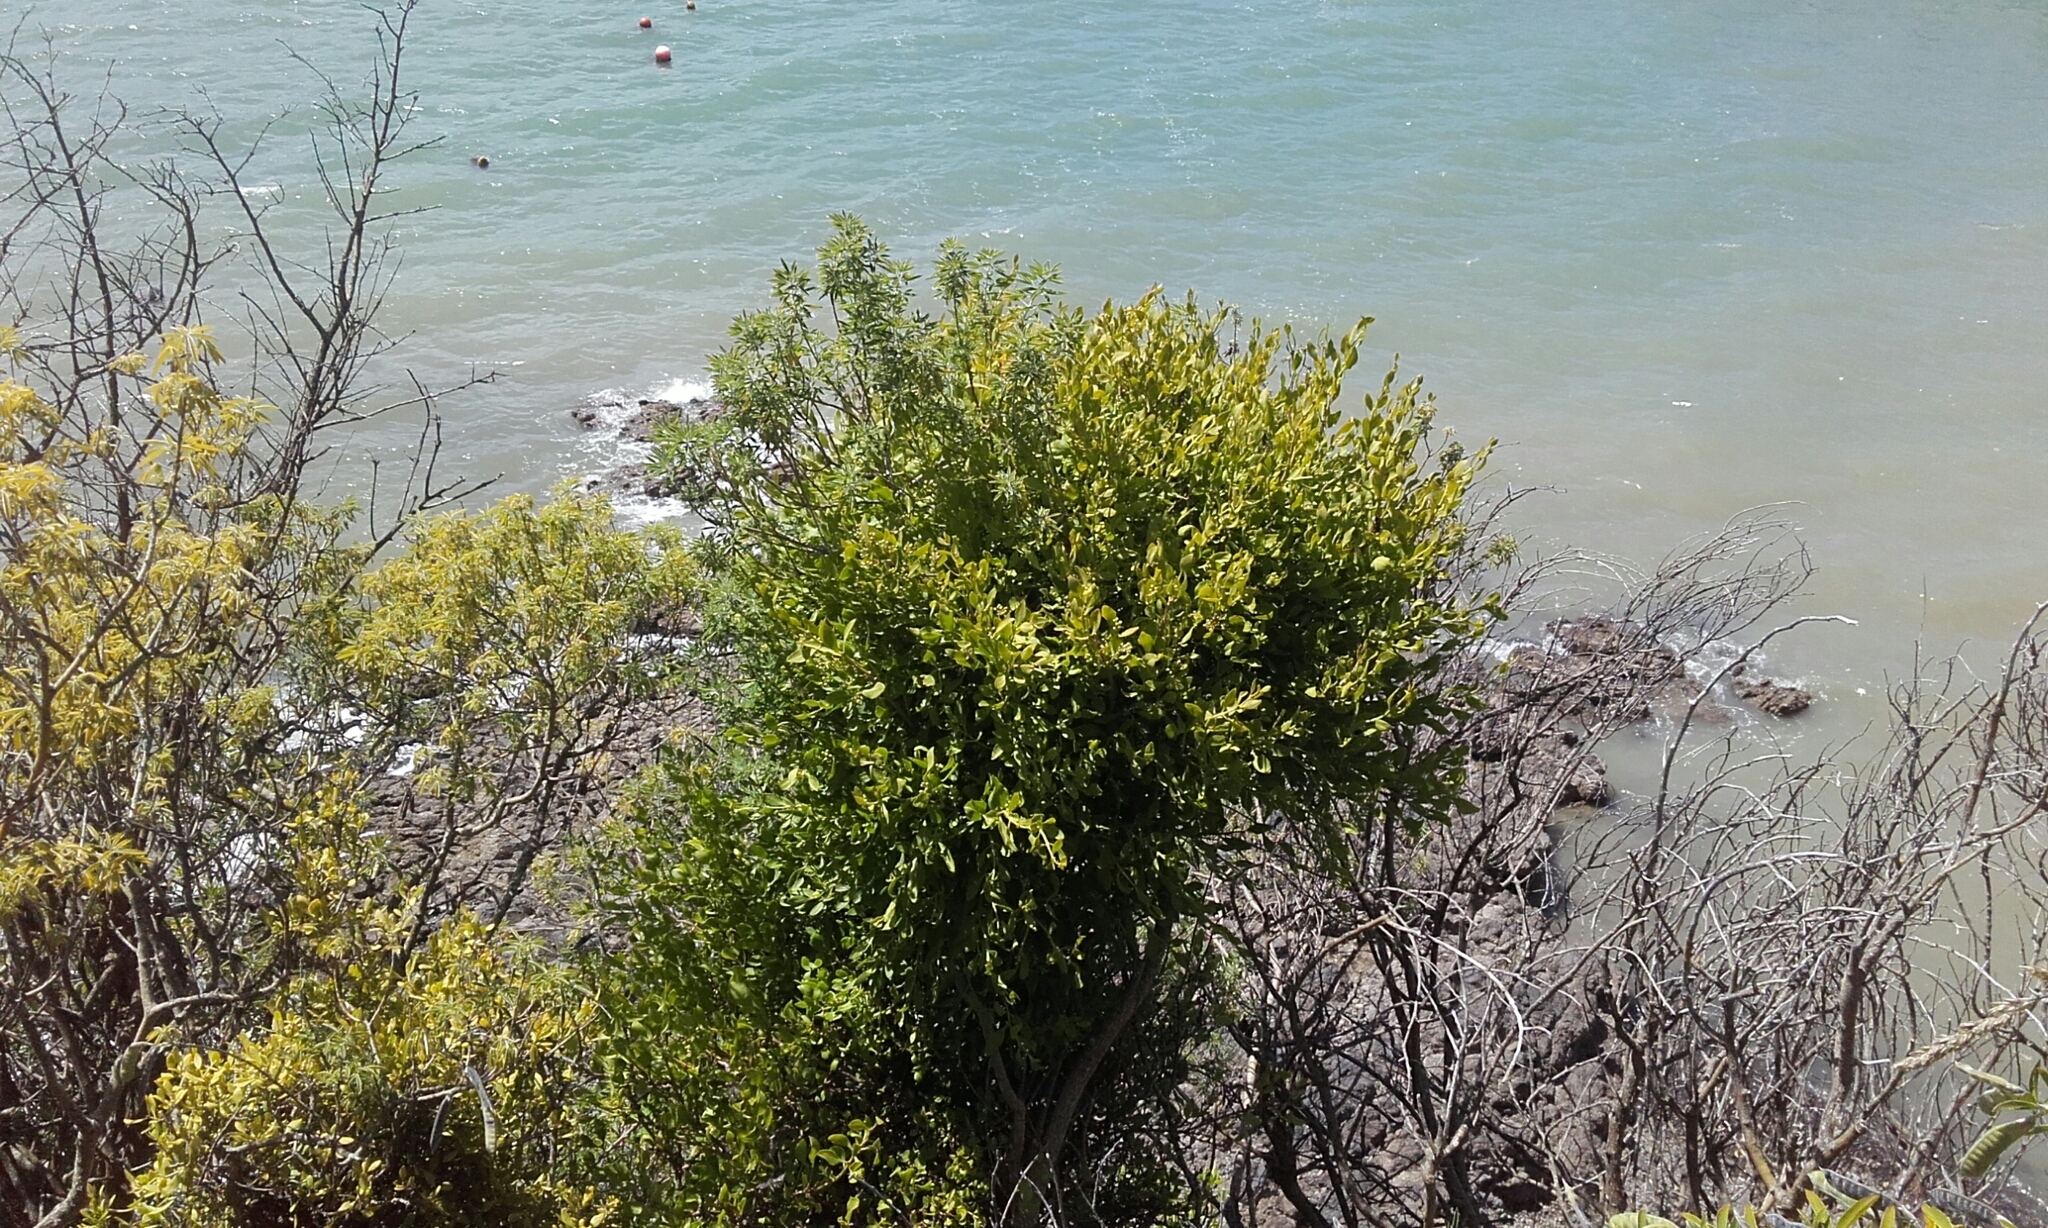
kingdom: Plantae
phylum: Tracheophyta
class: Magnoliopsida
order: Santalales
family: Loranthaceae
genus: Ileostylus
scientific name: Ileostylus micranthus
